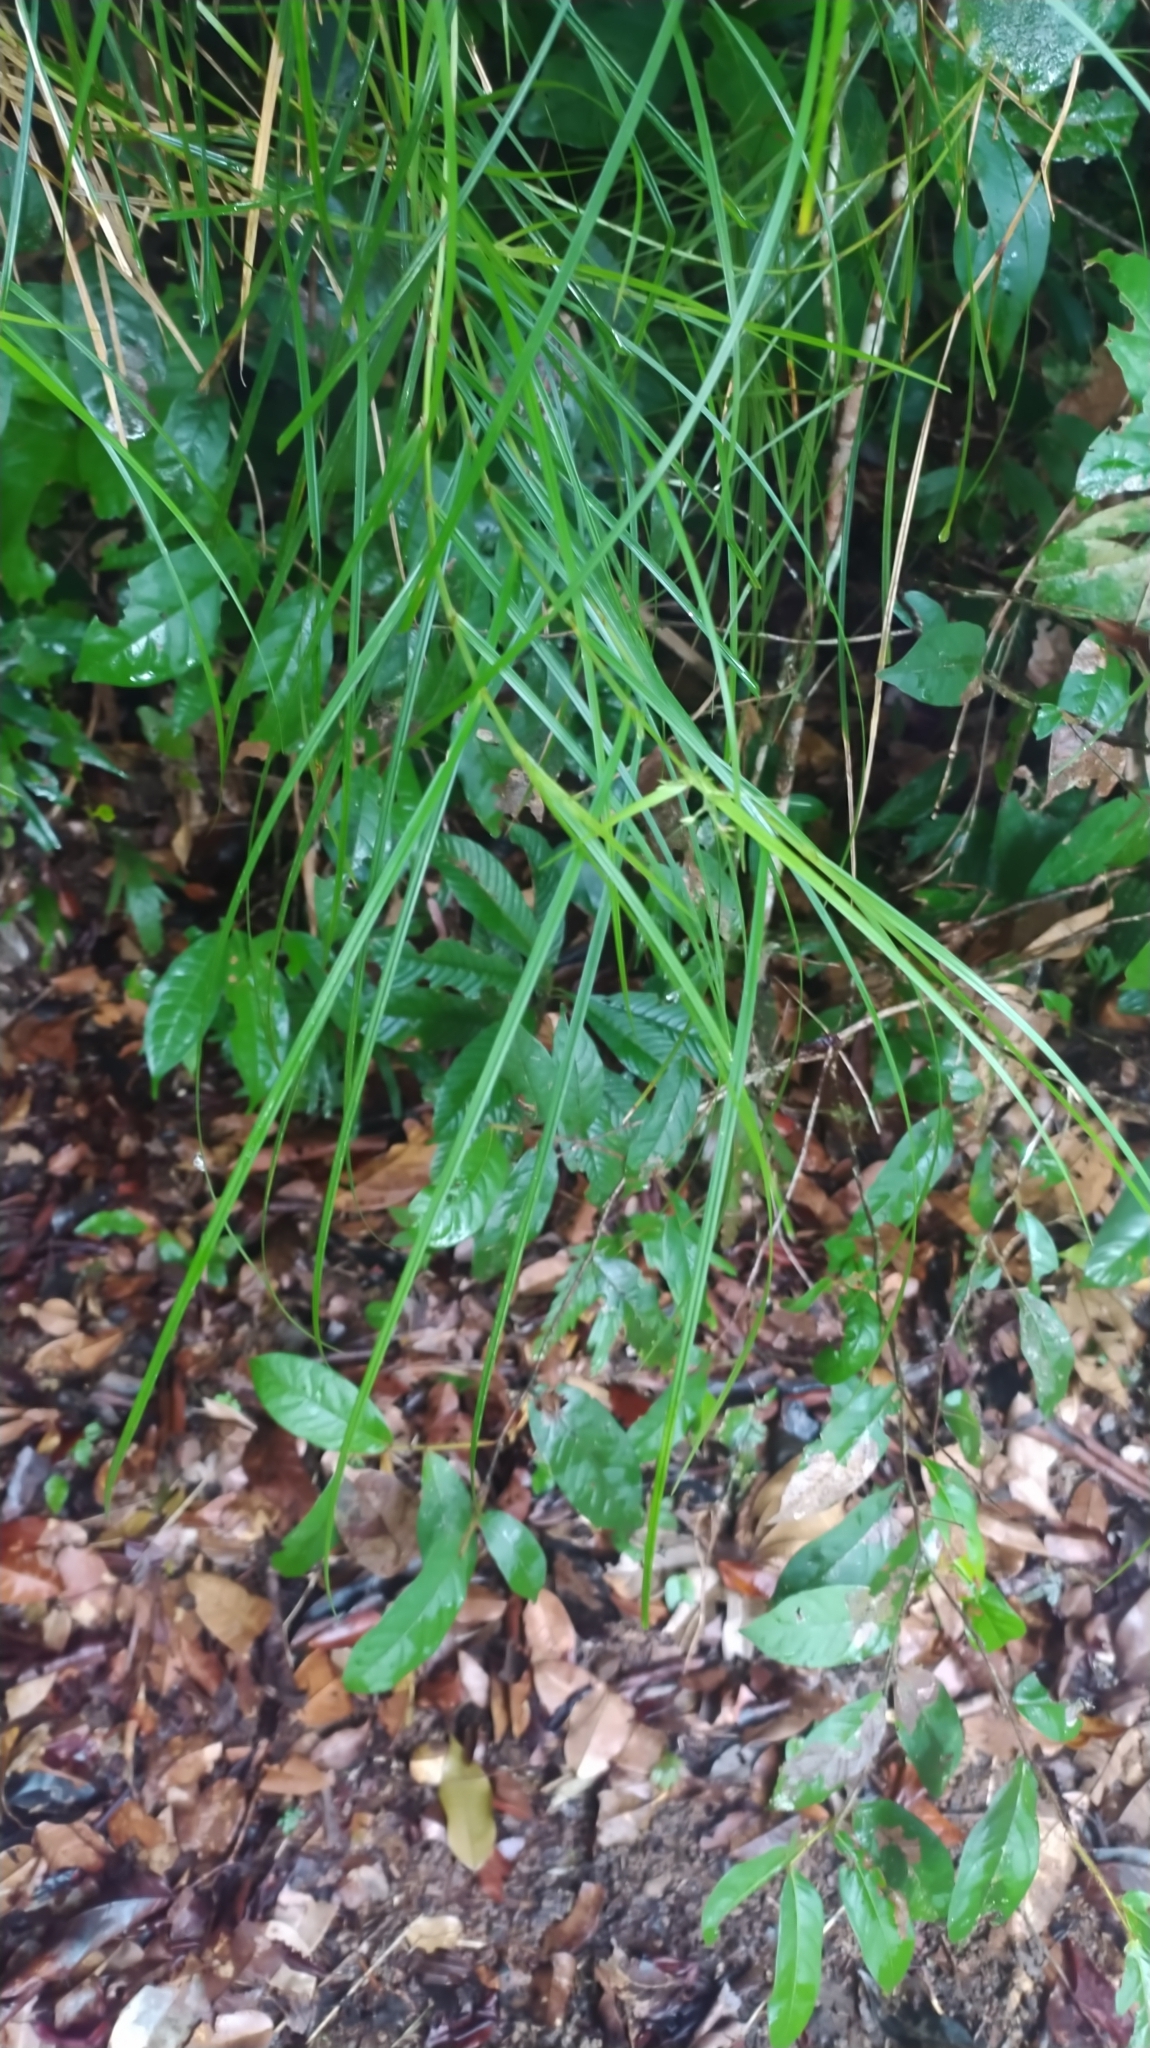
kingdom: Plantae
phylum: Tracheophyta
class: Liliopsida
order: Poales
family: Cyperaceae
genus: Scleria
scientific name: Scleria secans
